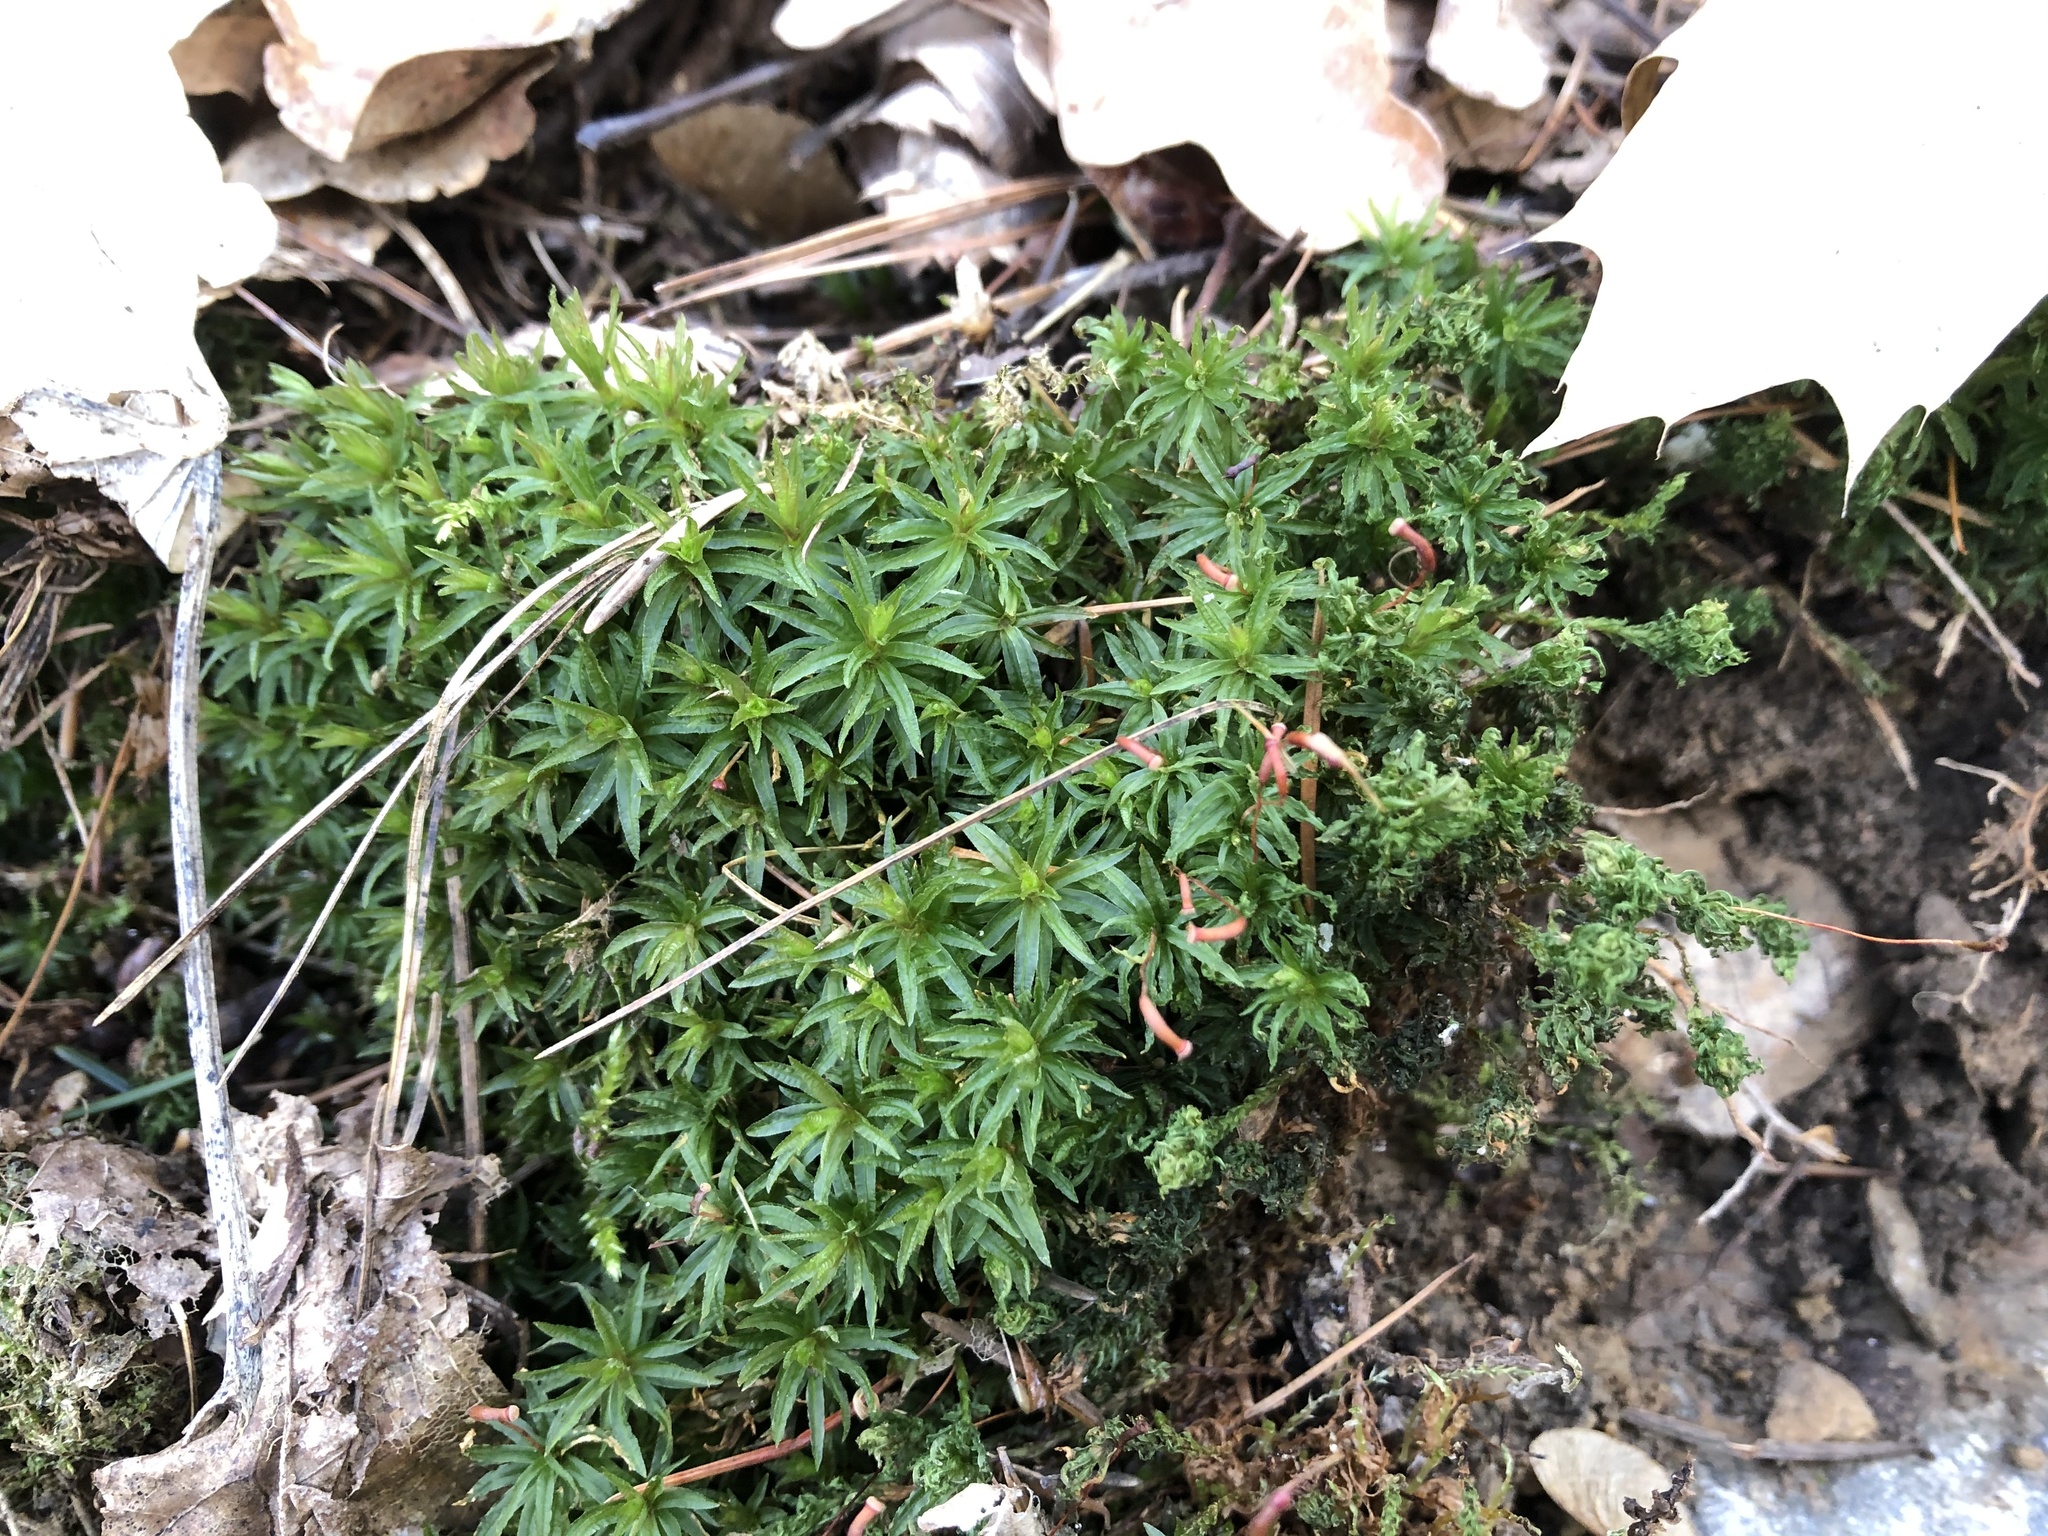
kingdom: Plantae
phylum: Bryophyta
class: Polytrichopsida
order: Polytrichales
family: Polytrichaceae
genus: Atrichum
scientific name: Atrichum undulatum
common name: Common smoothcap
